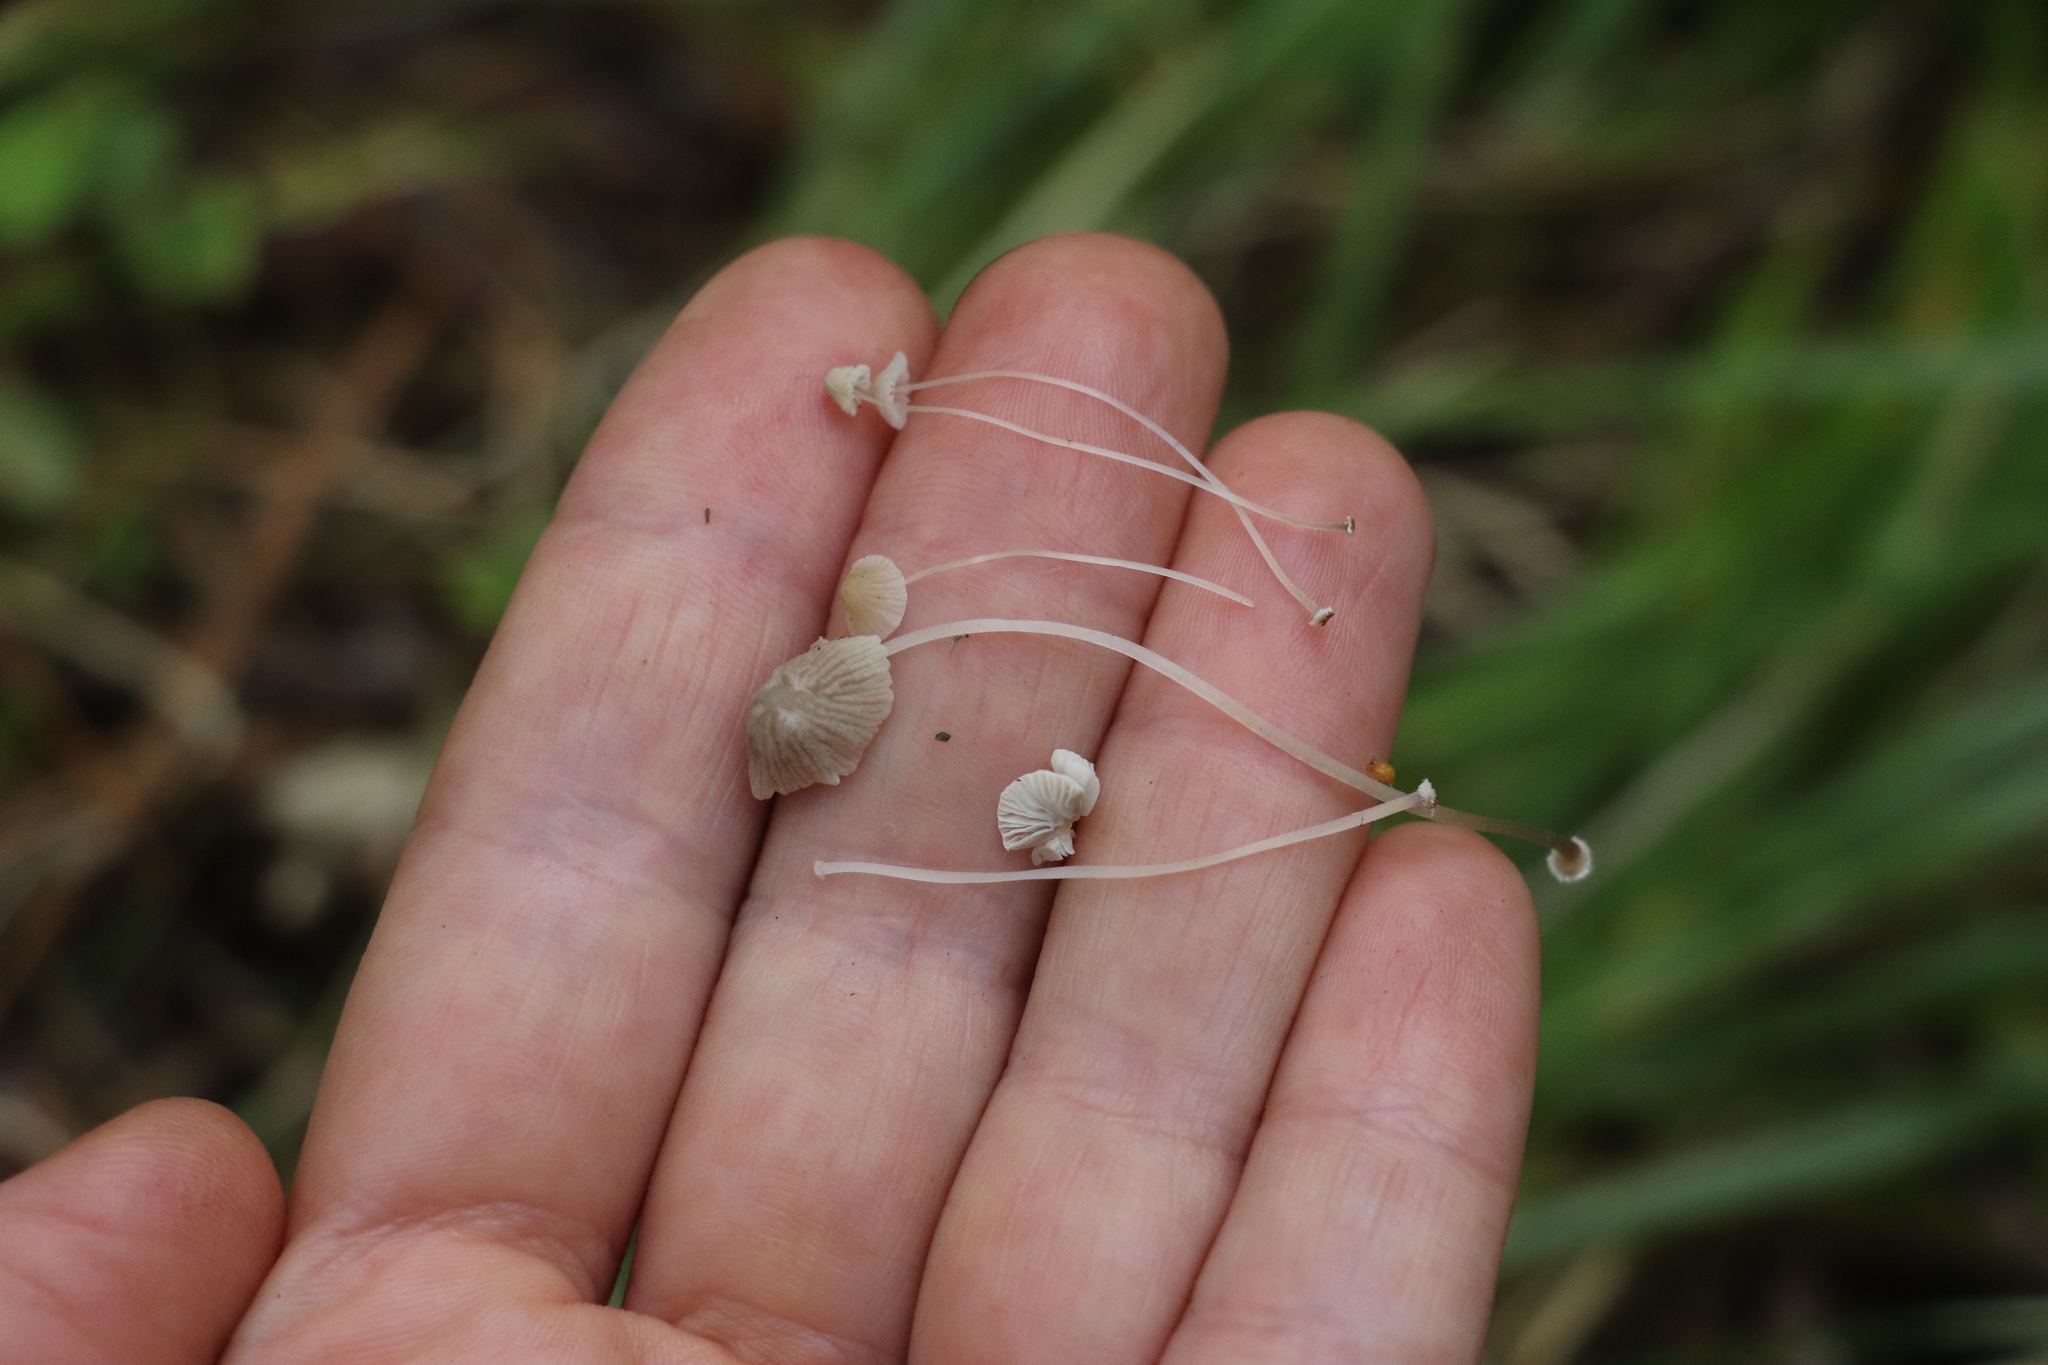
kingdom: Fungi
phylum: Basidiomycota
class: Agaricomycetes
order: Agaricales
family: Mycenaceae
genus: Mycena
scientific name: Mycena stipata
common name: Clustered pine bonnet
